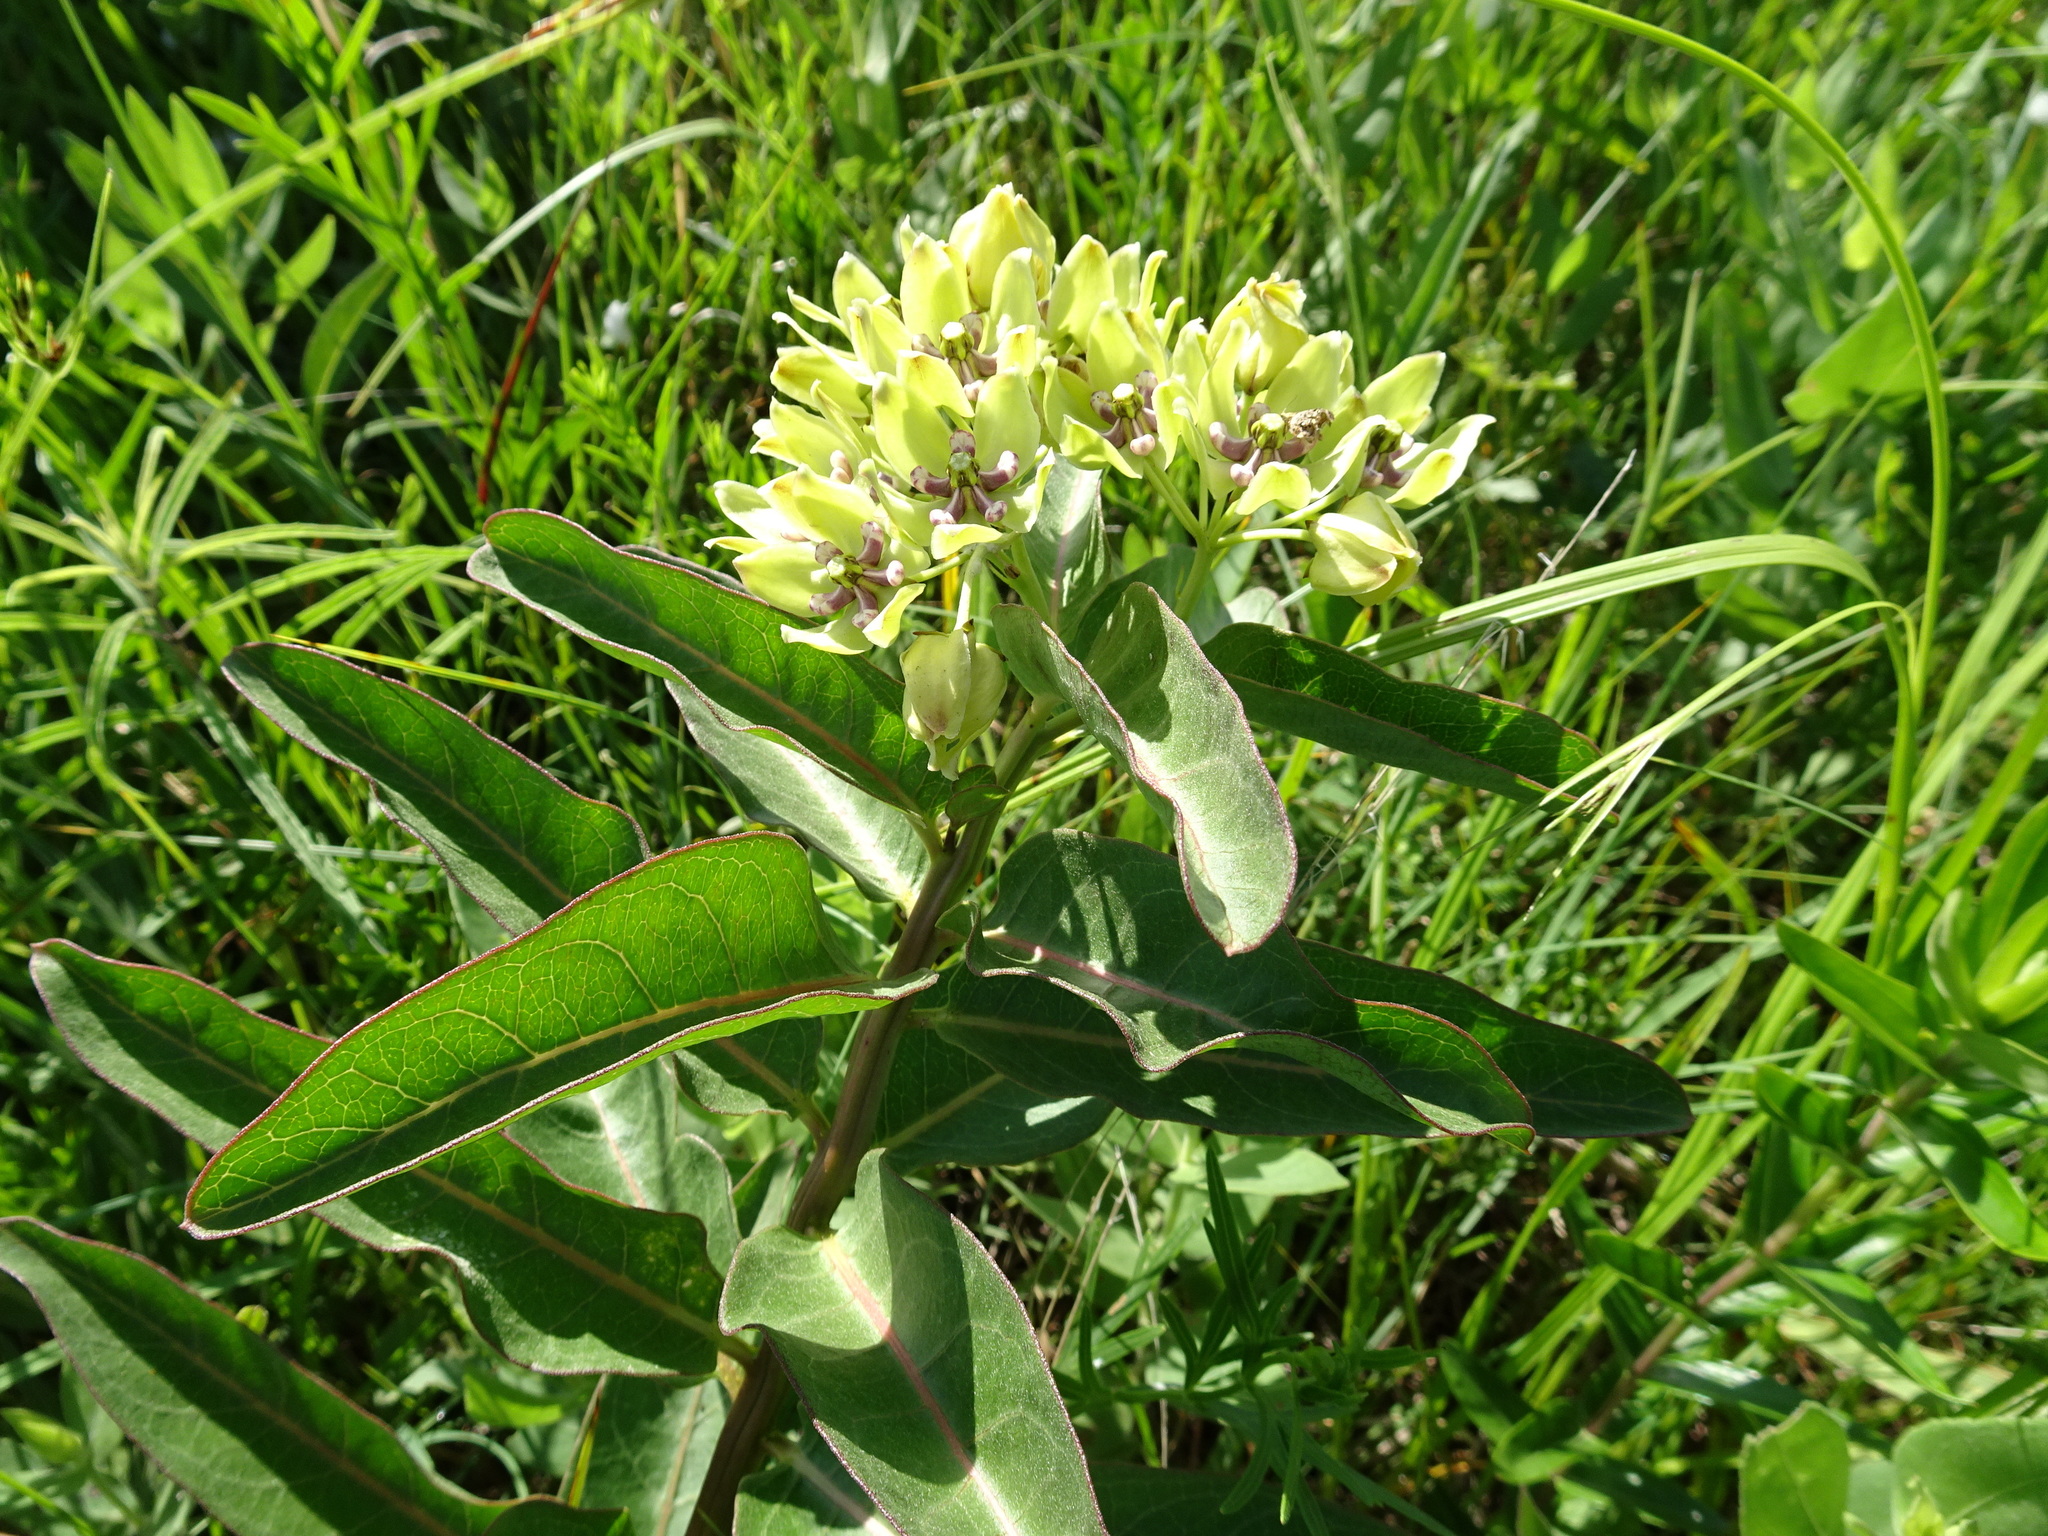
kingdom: Plantae
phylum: Tracheophyta
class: Magnoliopsida
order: Gentianales
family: Apocynaceae
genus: Asclepias
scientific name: Asclepias viridis
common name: Antelope-horns
